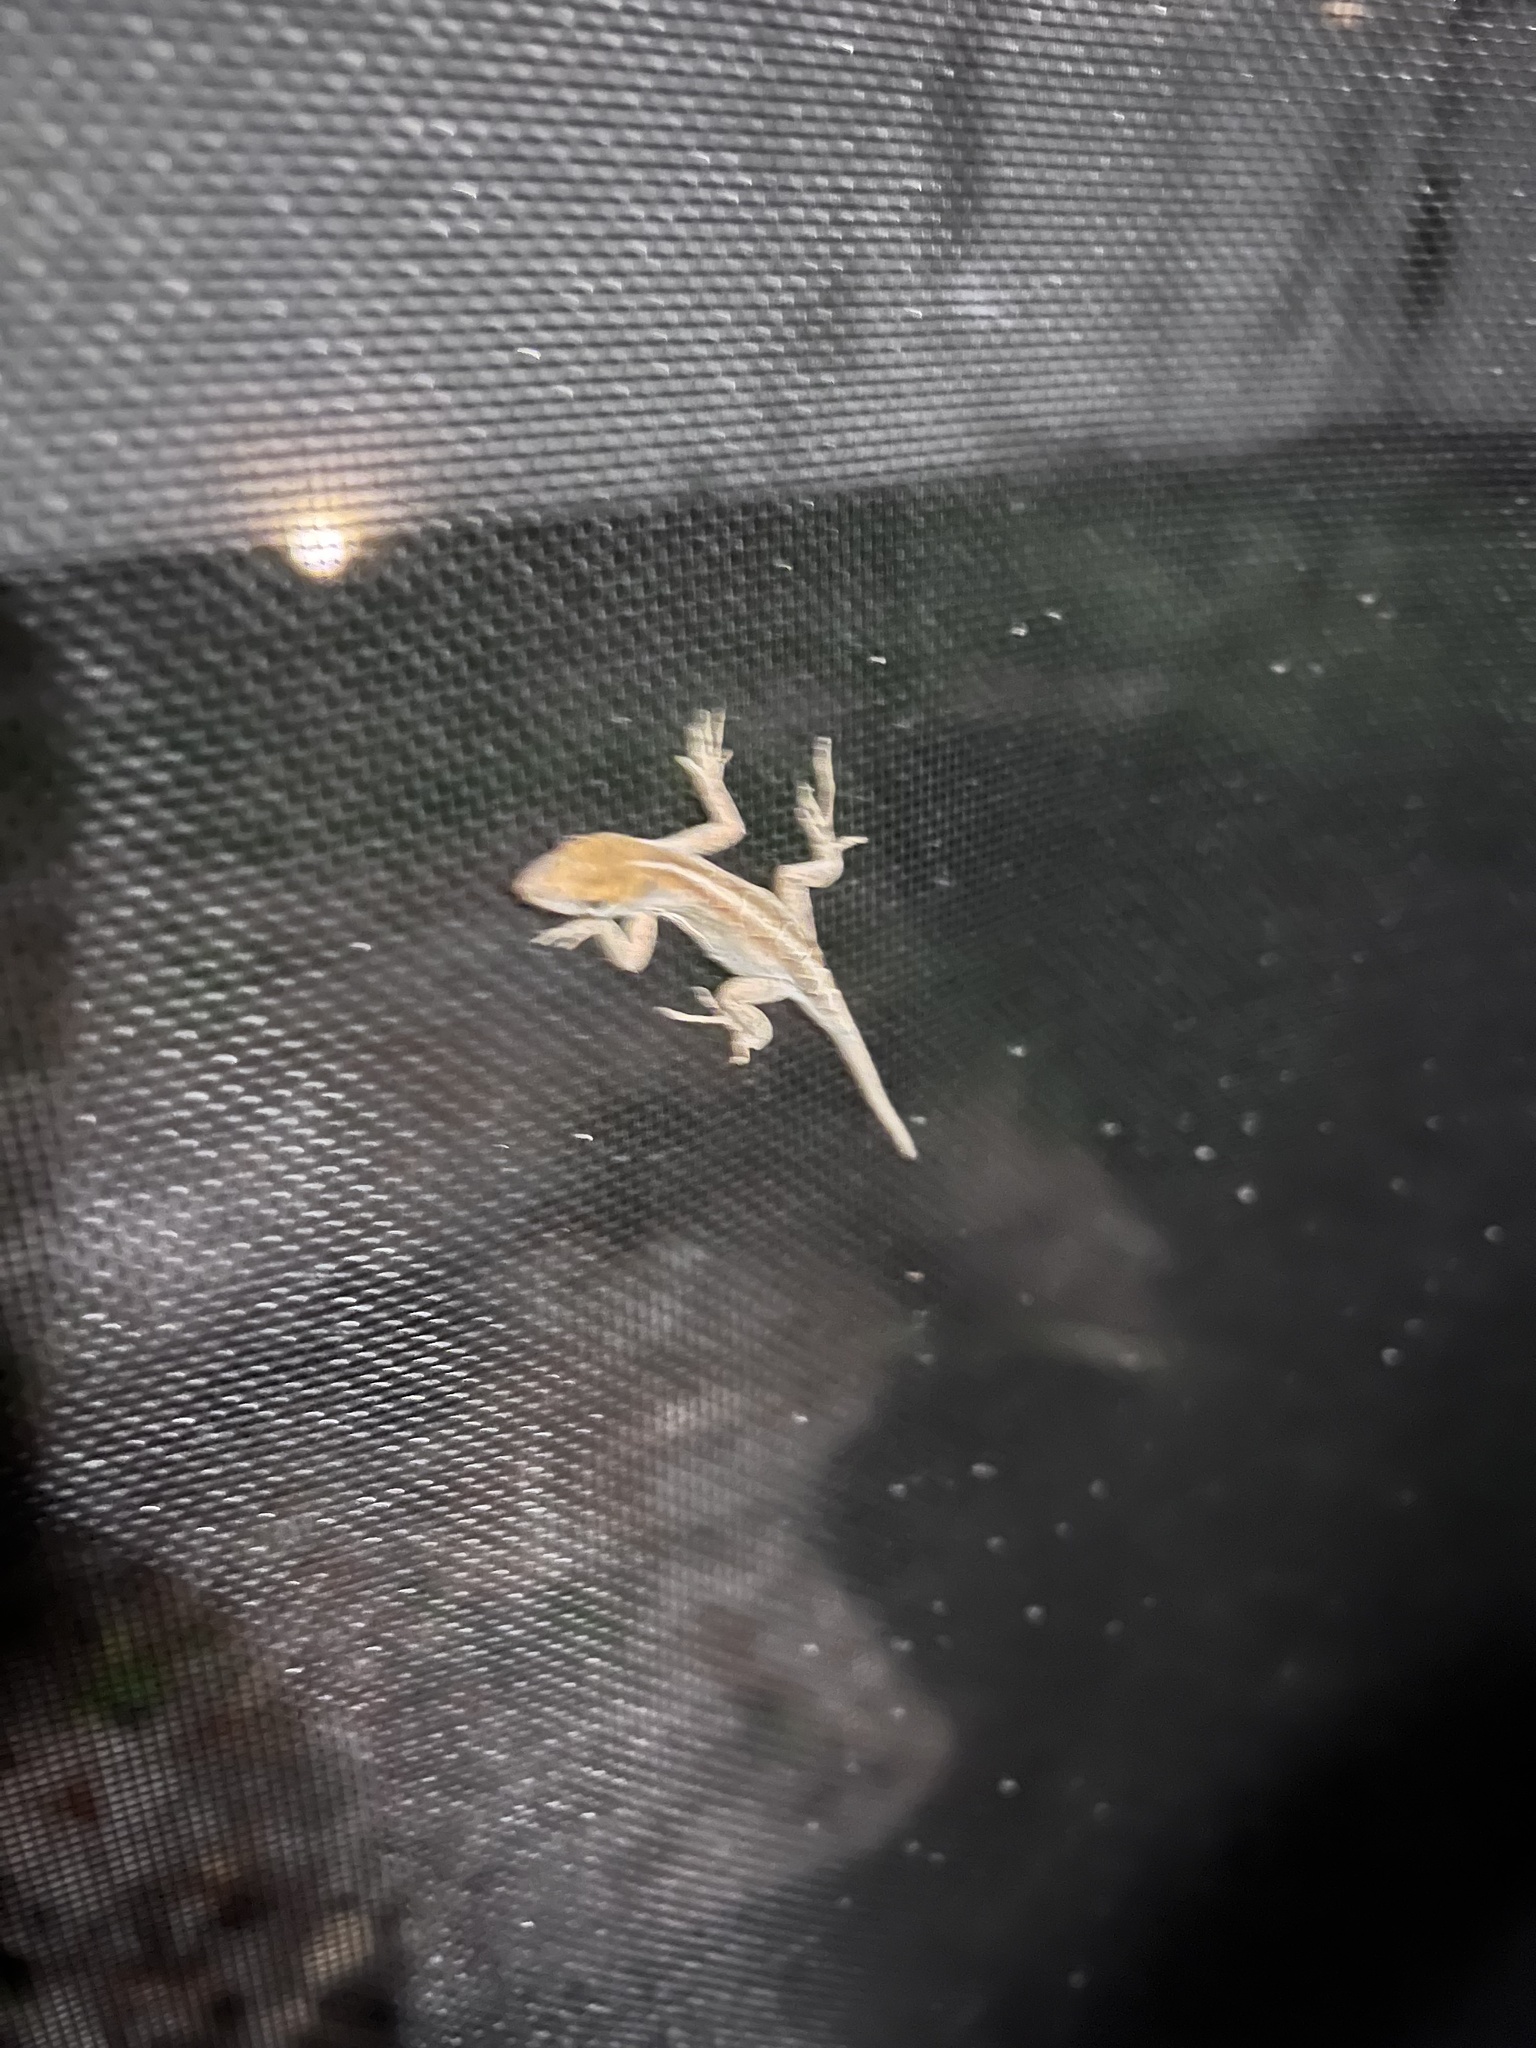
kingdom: Animalia
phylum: Chordata
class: Squamata
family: Dactyloidae
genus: Anolis
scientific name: Anolis sagrei
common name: Brown anole
